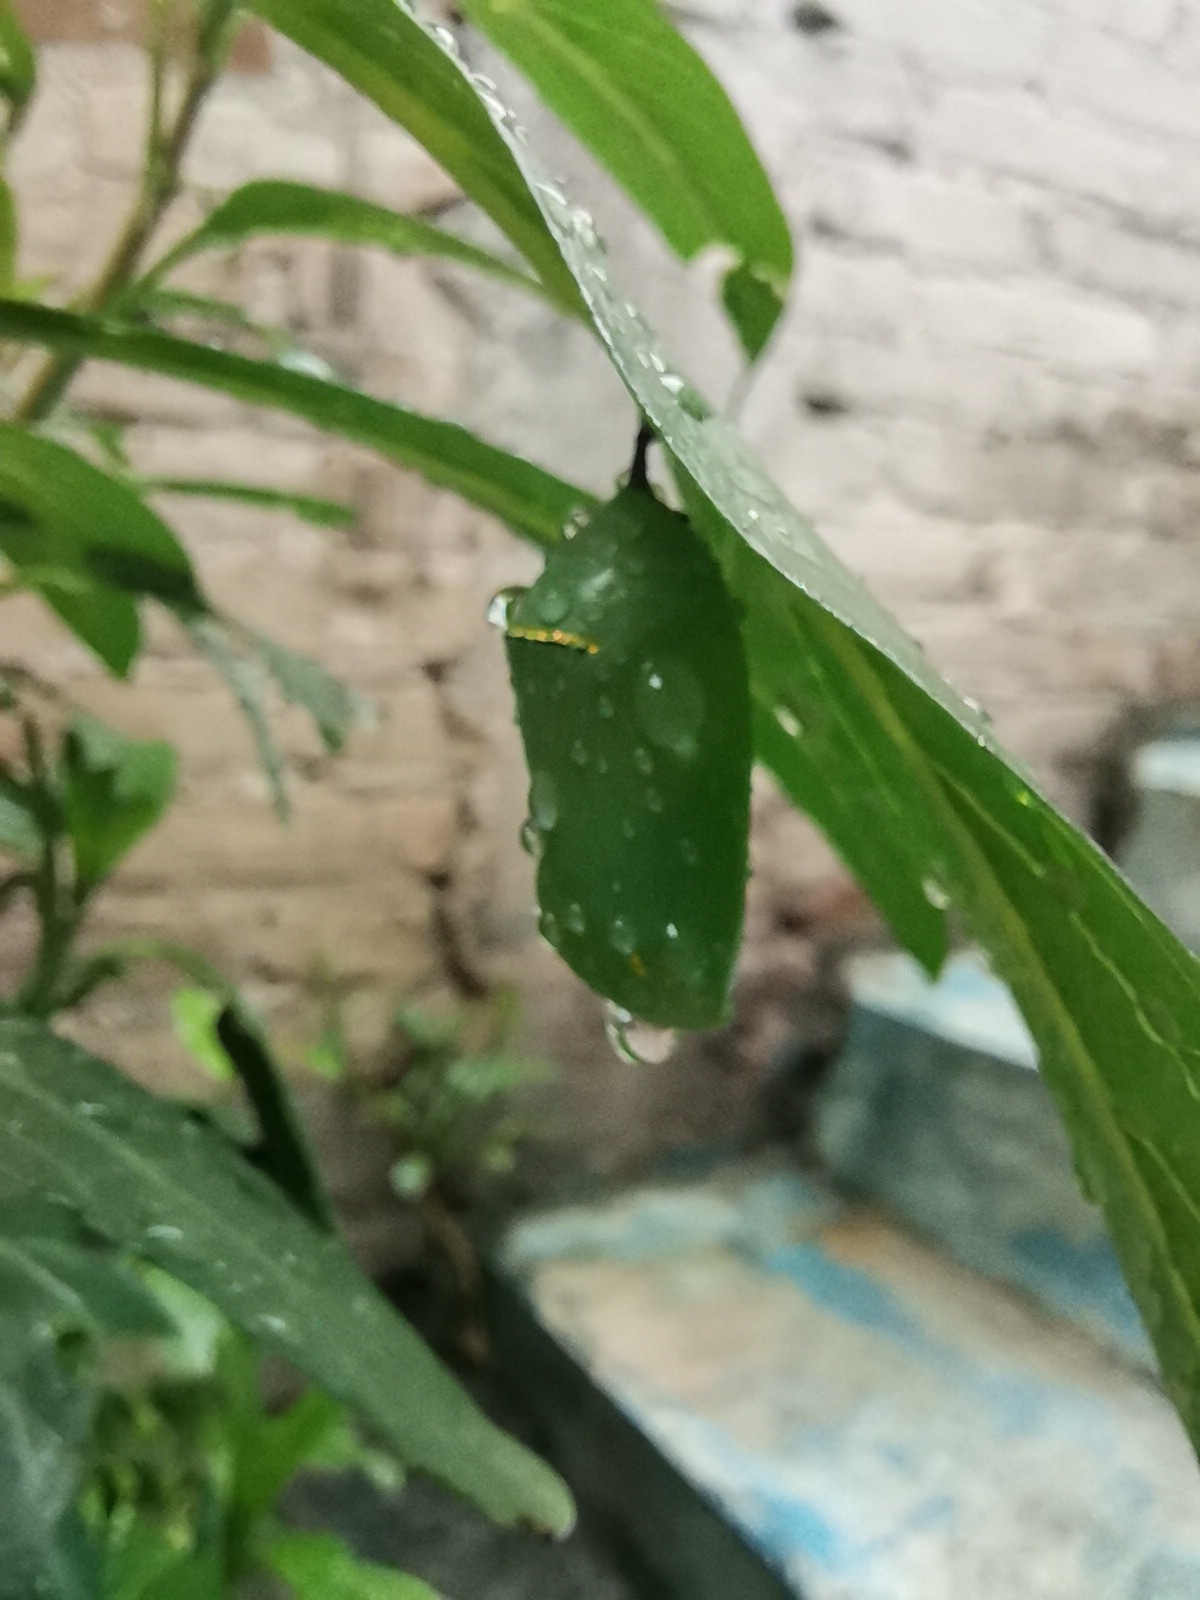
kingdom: Animalia
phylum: Arthropoda
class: Insecta
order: Lepidoptera
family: Nymphalidae
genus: Danaus
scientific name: Danaus plexippus
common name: Monarch
